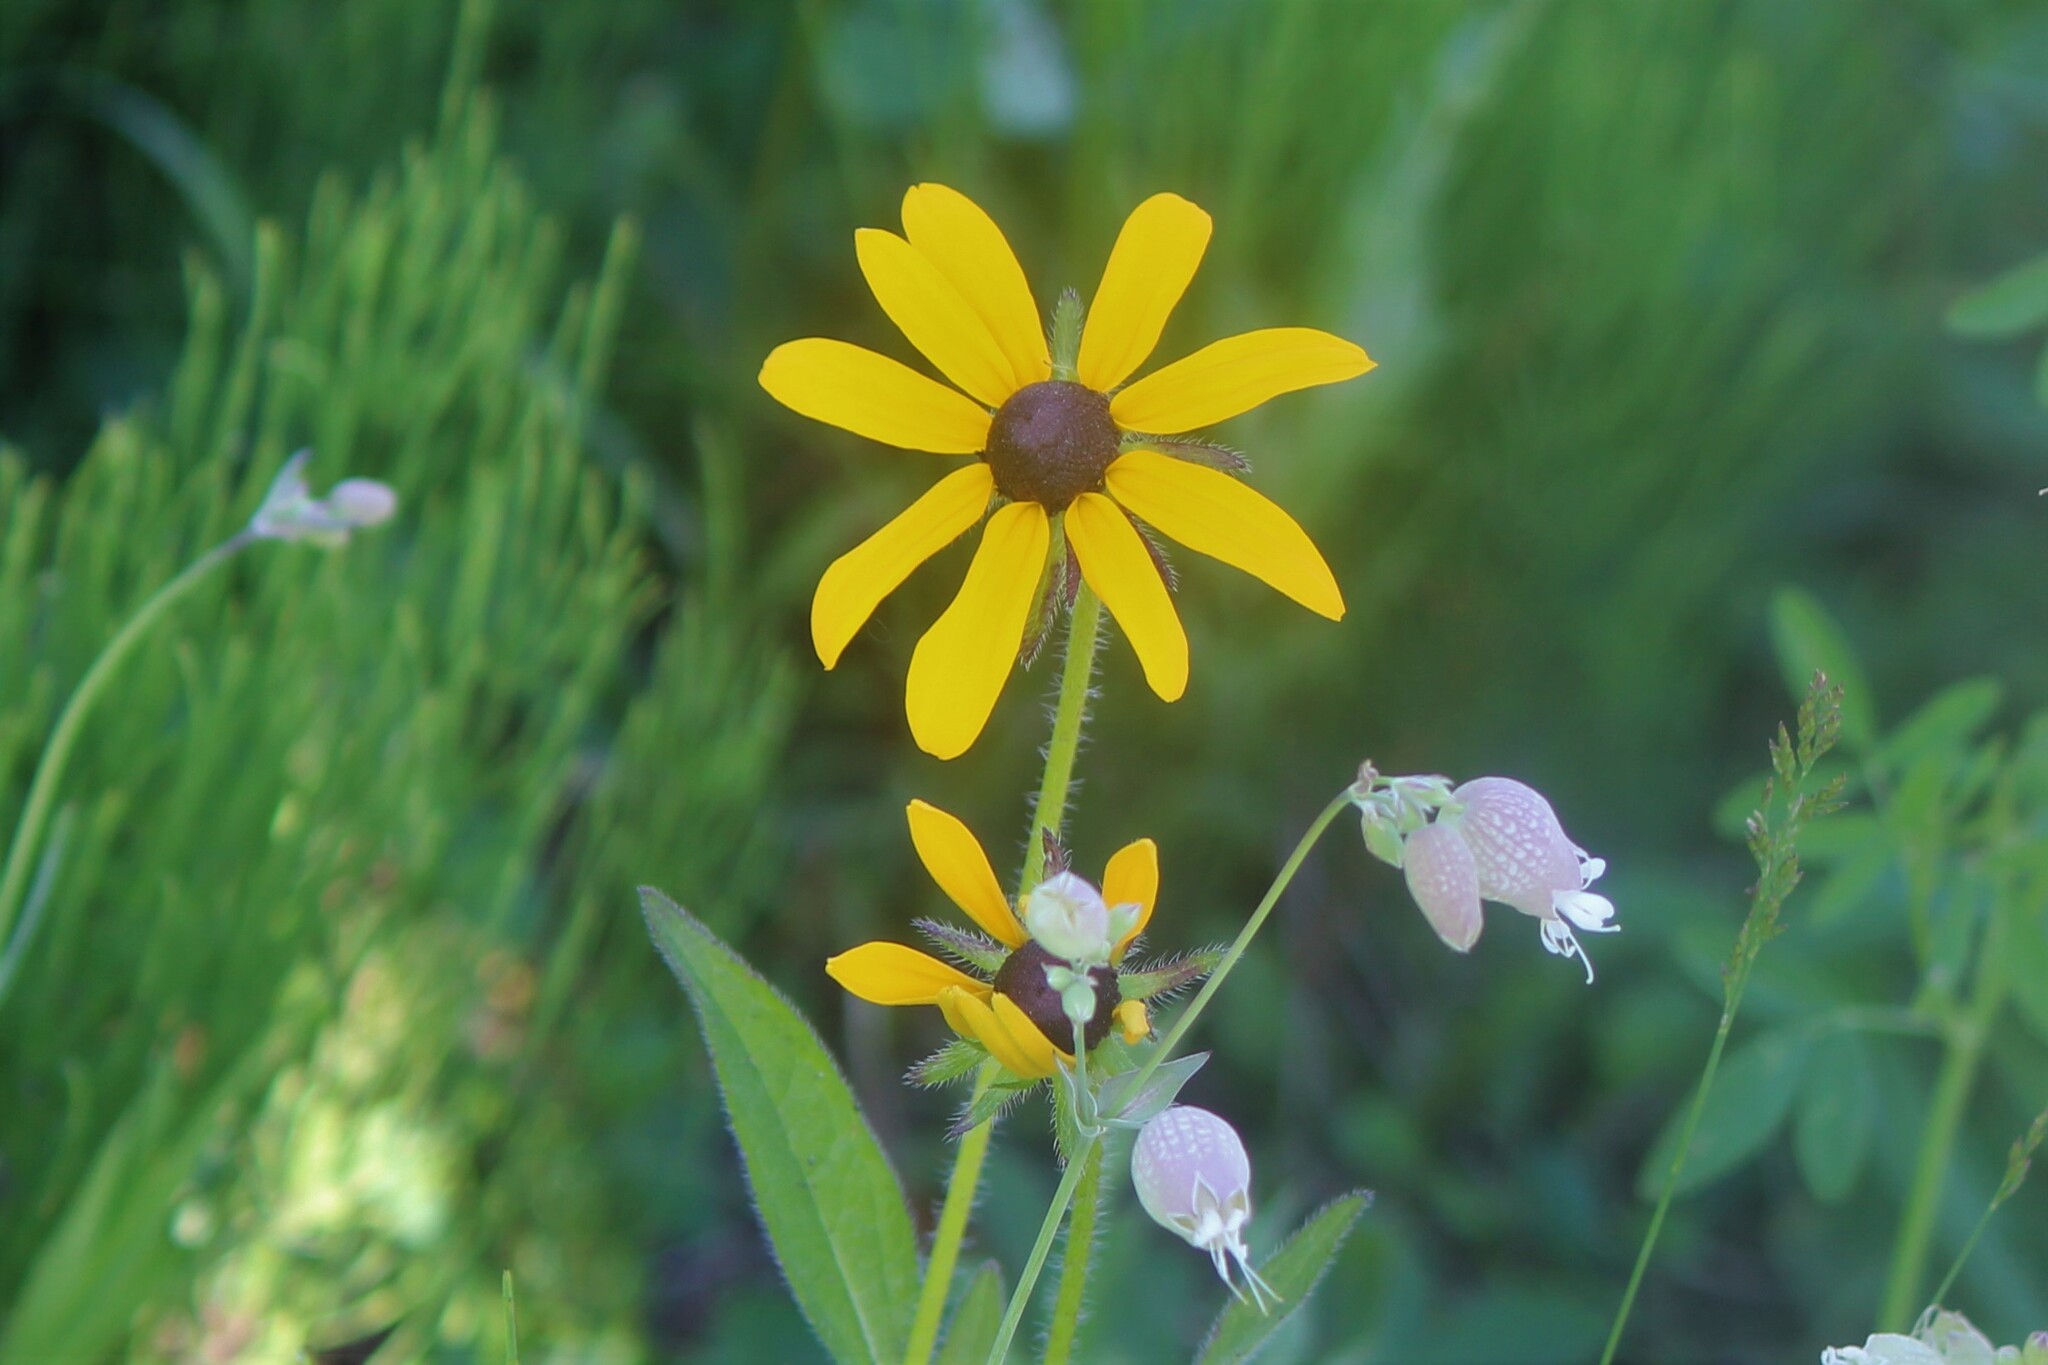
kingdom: Plantae
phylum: Tracheophyta
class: Magnoliopsida
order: Asterales
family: Asteraceae
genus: Rudbeckia
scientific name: Rudbeckia hirta
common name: Black-eyed-susan
